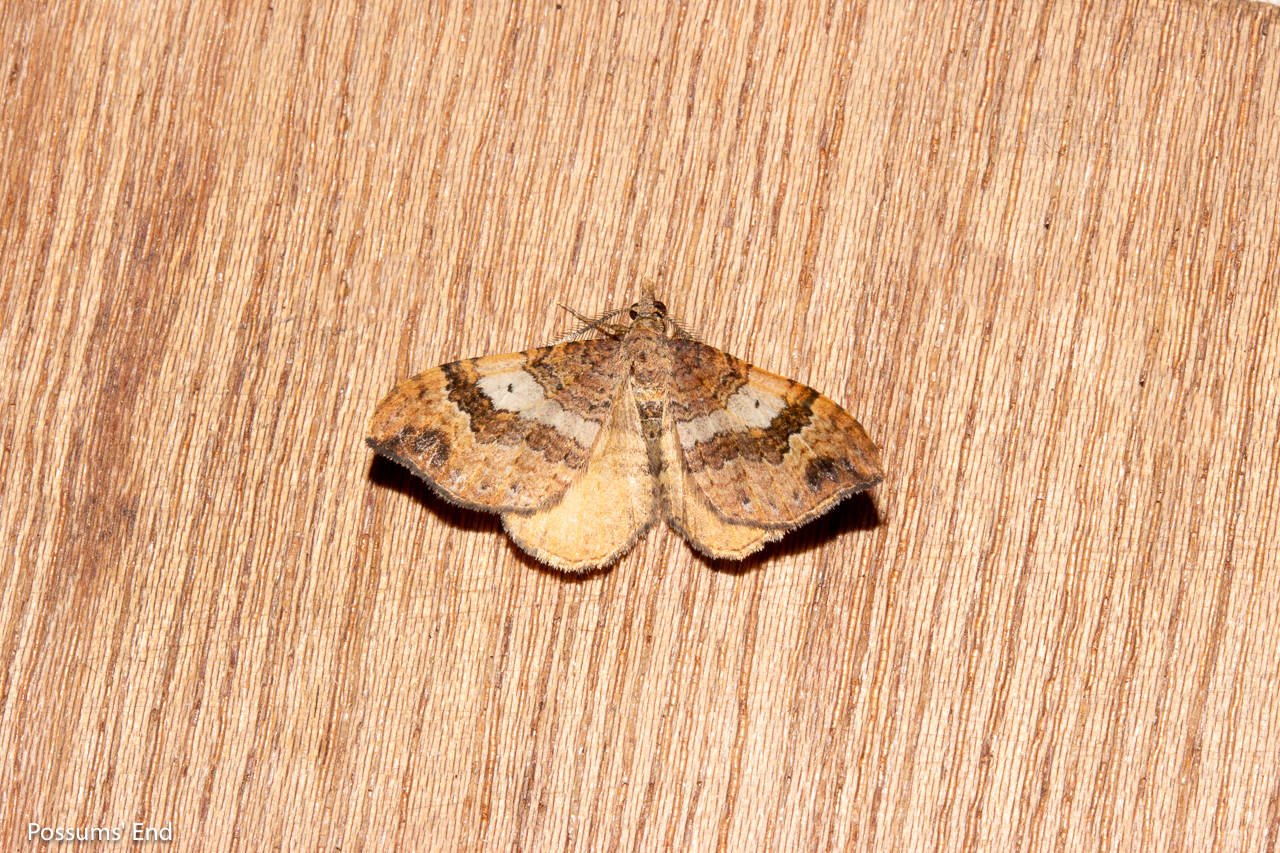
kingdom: Animalia
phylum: Arthropoda
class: Insecta
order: Lepidoptera
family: Geometridae
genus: Homodotis
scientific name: Homodotis megaspilata
